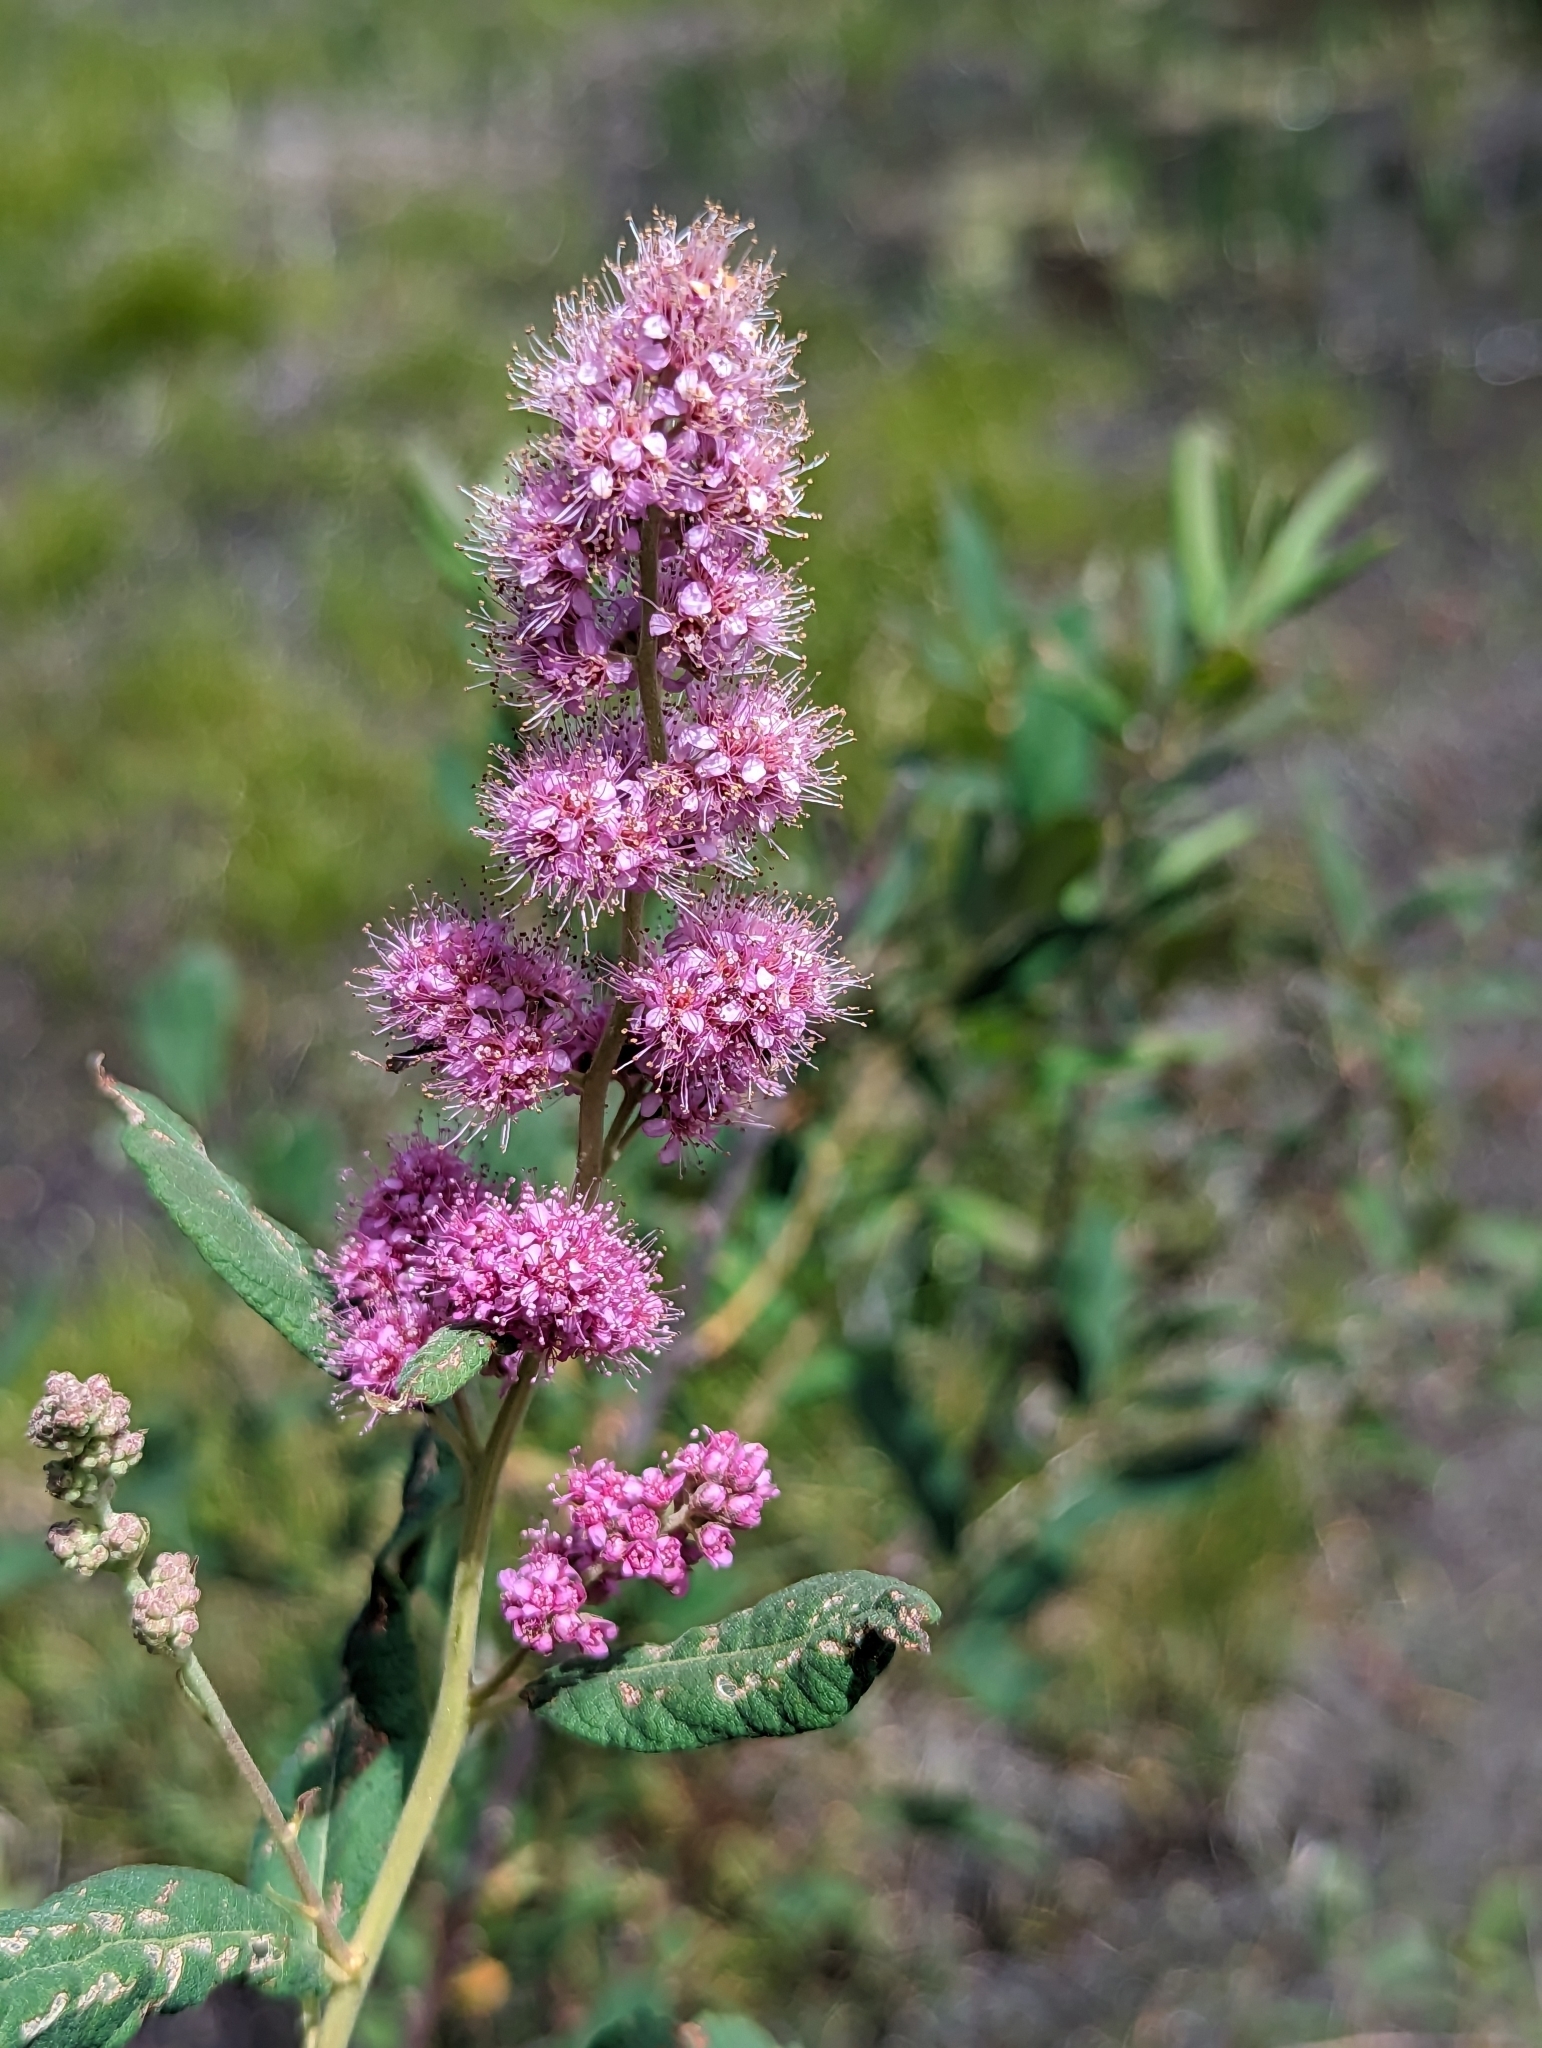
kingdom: Plantae
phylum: Tracheophyta
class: Magnoliopsida
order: Rosales
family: Rosaceae
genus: Spiraea
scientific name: Spiraea douglasii
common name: Steeplebush
